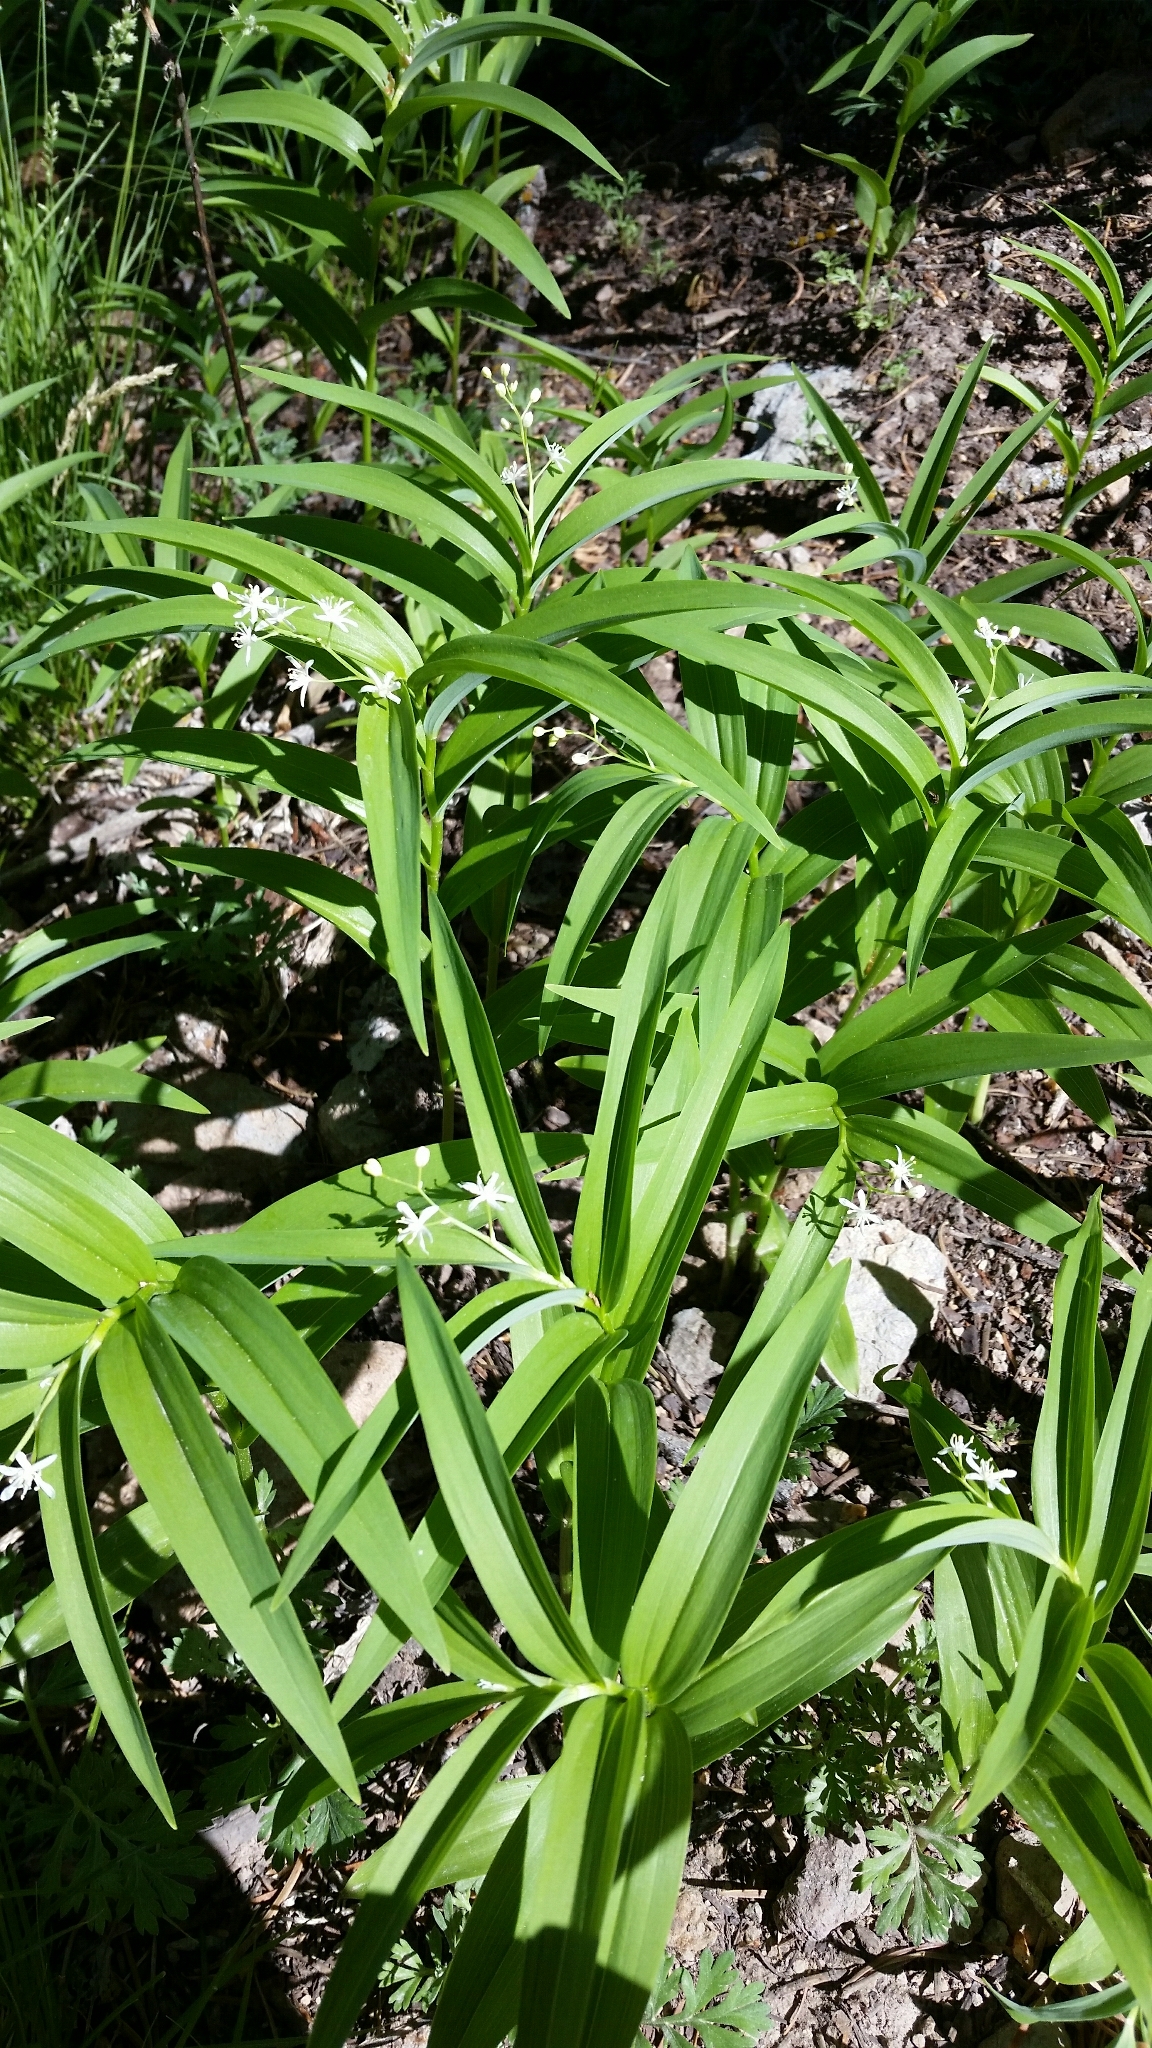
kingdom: Plantae
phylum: Tracheophyta
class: Liliopsida
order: Asparagales
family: Asparagaceae
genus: Maianthemum
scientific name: Maianthemum stellatum
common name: Little false solomon's seal
